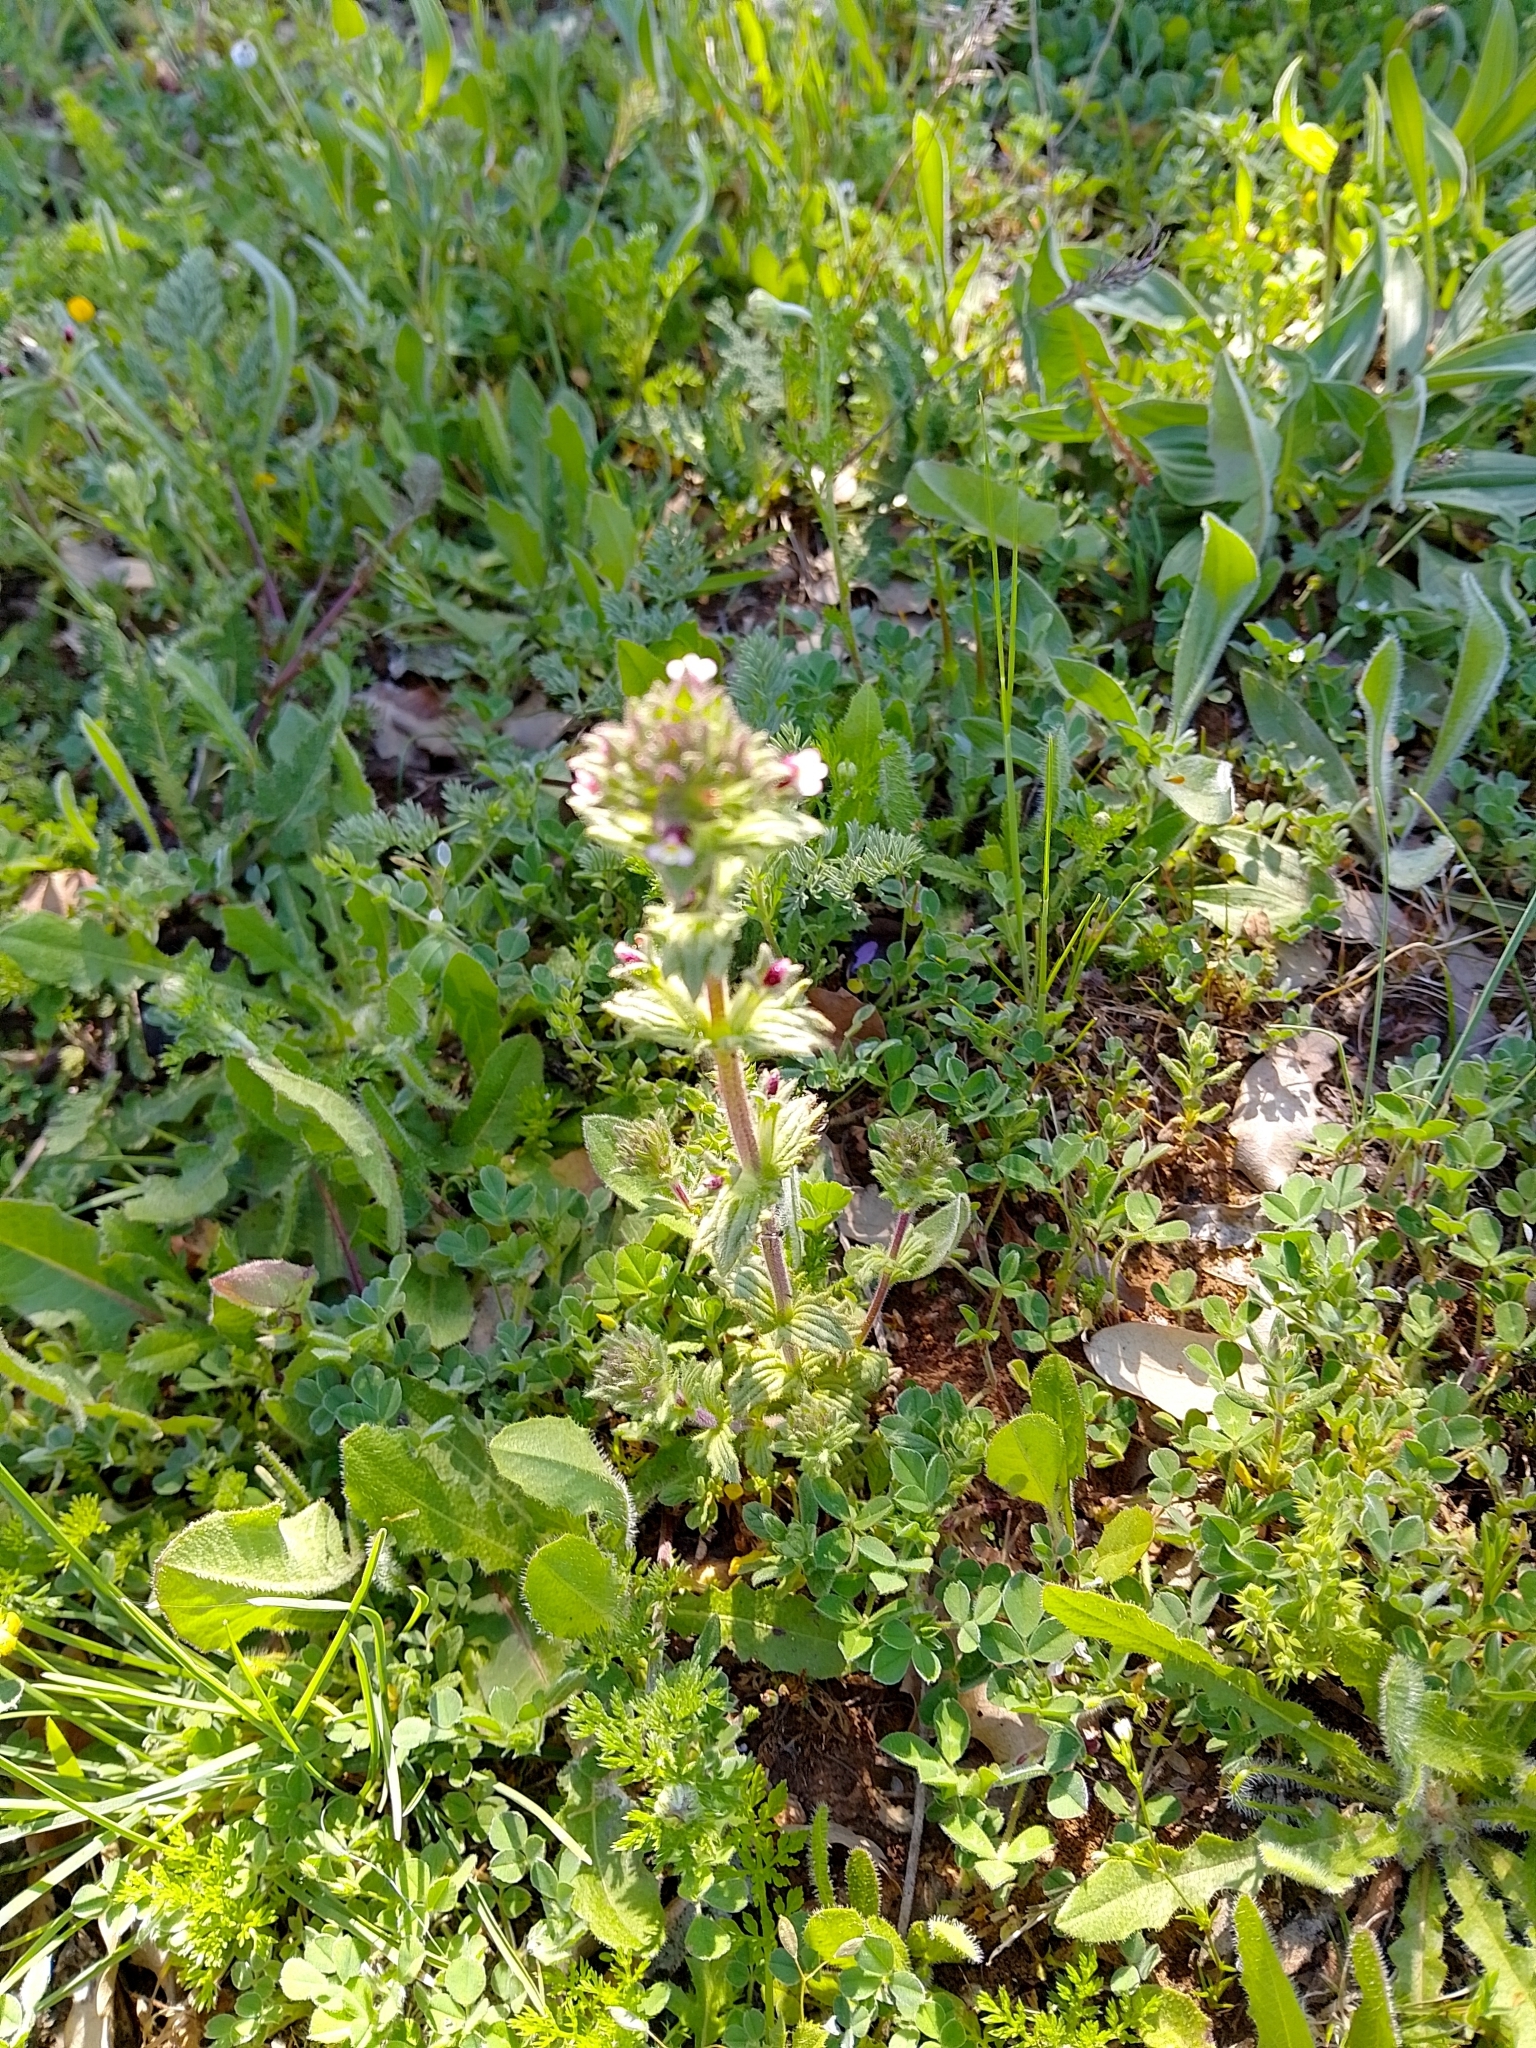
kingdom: Plantae
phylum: Tracheophyta
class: Magnoliopsida
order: Lamiales
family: Orobanchaceae
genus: Parentucellia
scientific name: Parentucellia latifolia
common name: Broadleaf glandweed
